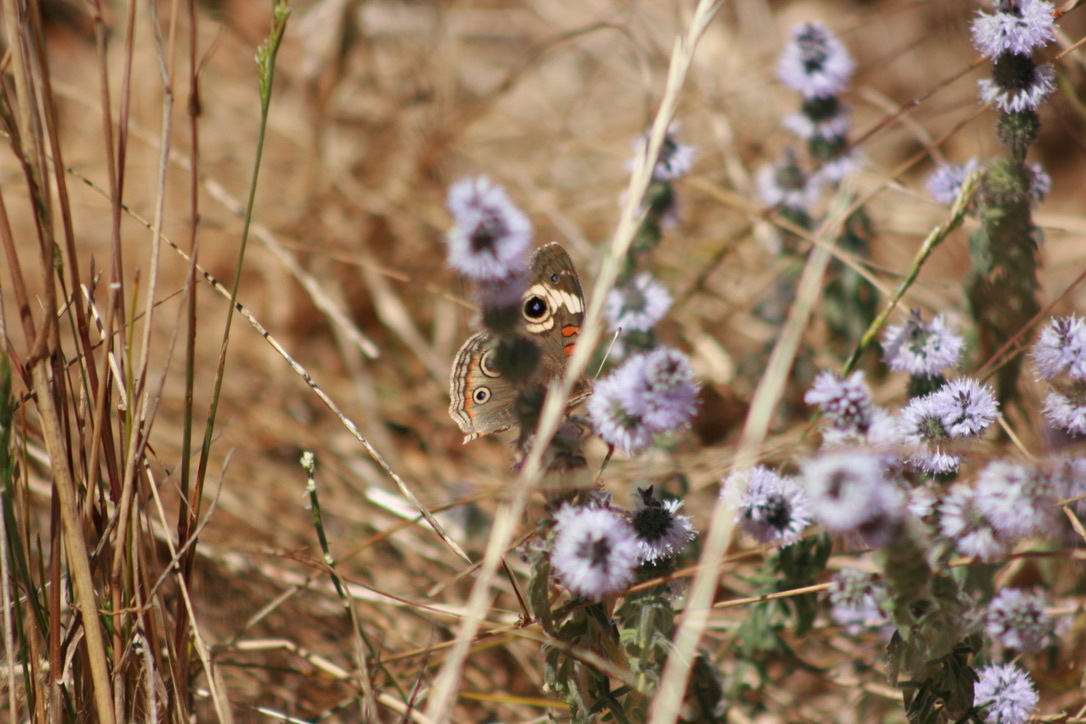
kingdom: Animalia
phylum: Arthropoda
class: Insecta
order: Lepidoptera
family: Nymphalidae
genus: Junonia
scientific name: Junonia grisea
